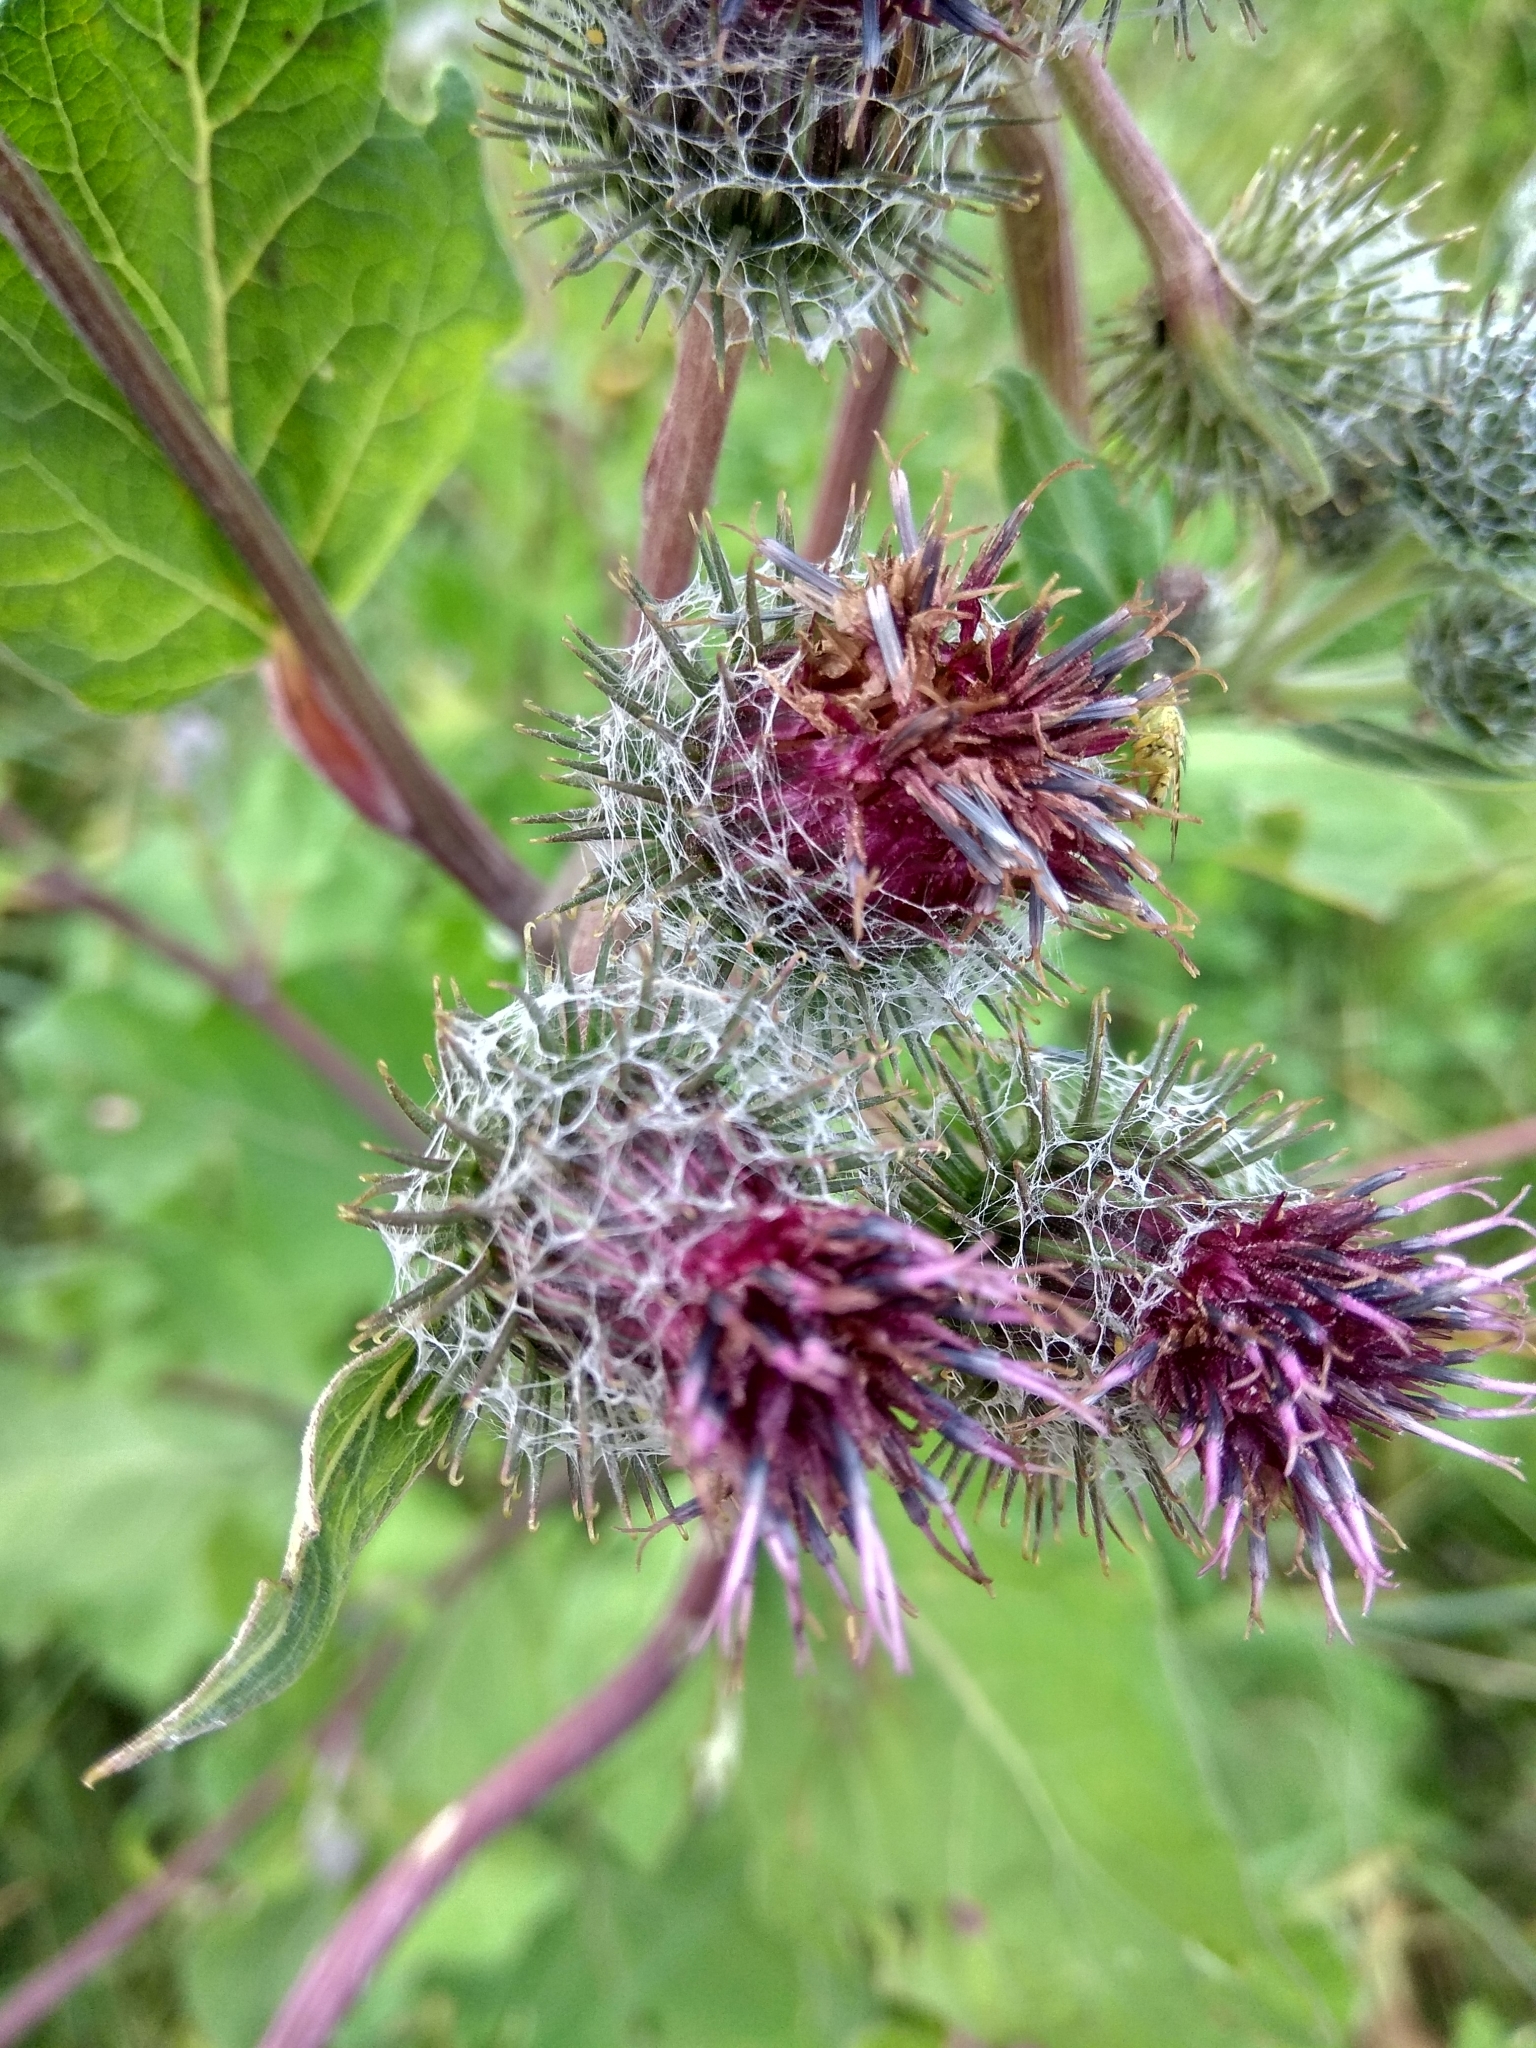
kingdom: Plantae
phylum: Tracheophyta
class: Magnoliopsida
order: Asterales
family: Asteraceae
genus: Arctium
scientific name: Arctium tomentosum
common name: Woolly burdock
